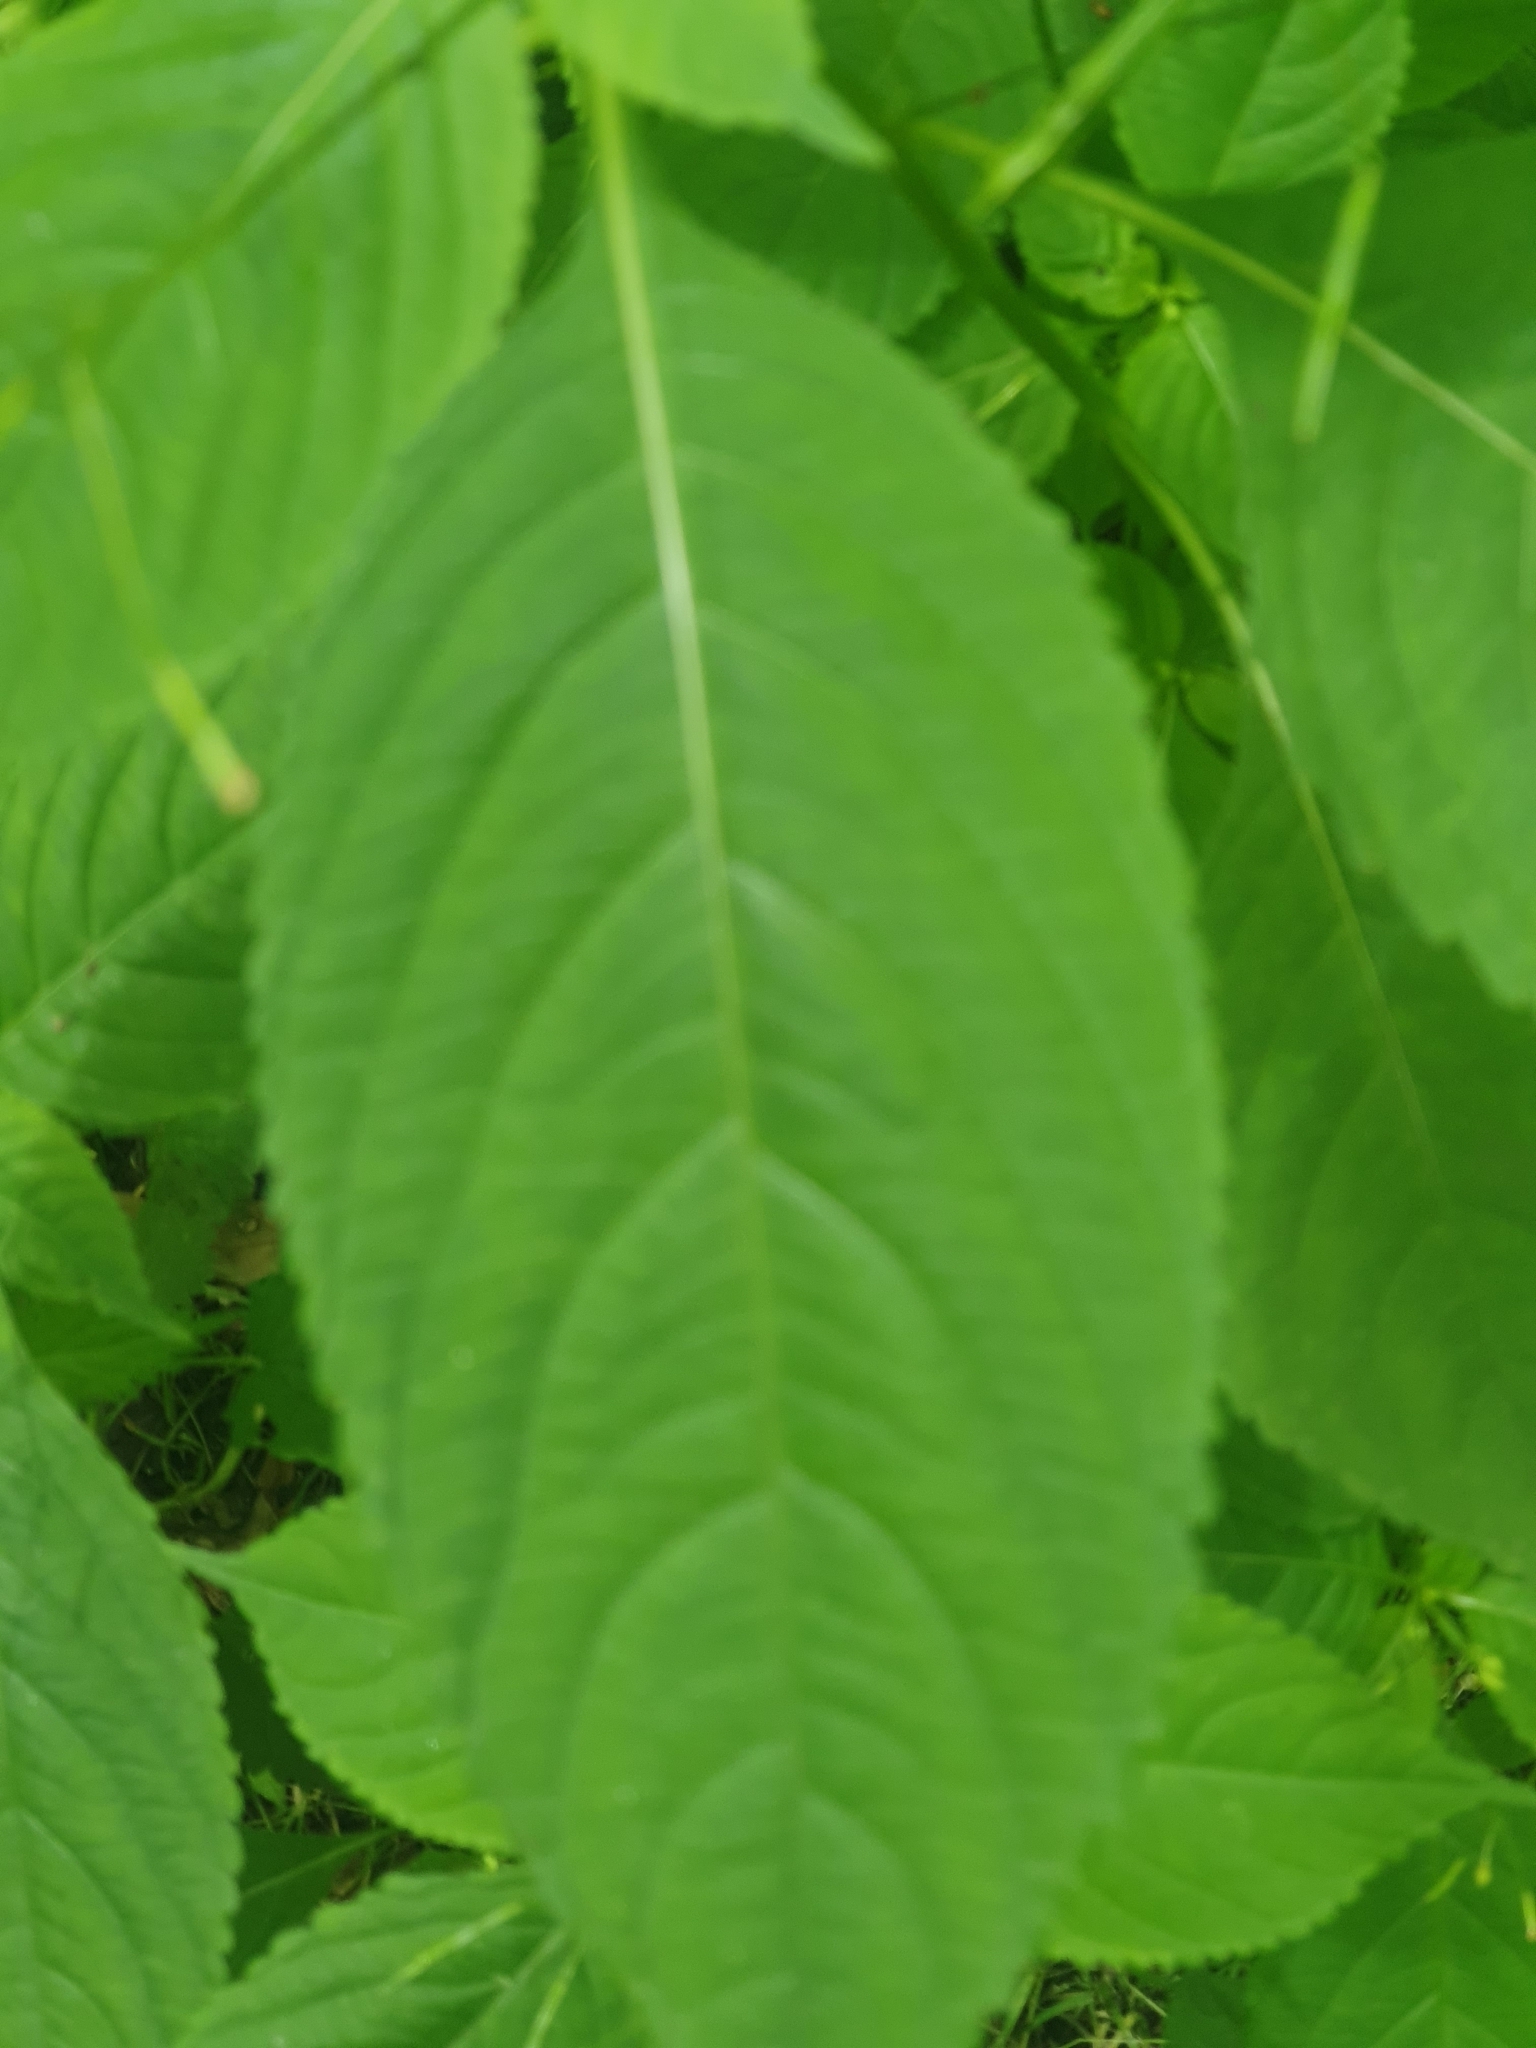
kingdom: Plantae
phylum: Tracheophyta
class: Magnoliopsida
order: Ericales
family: Balsaminaceae
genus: Impatiens
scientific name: Impatiens parviflora
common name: Small balsam
